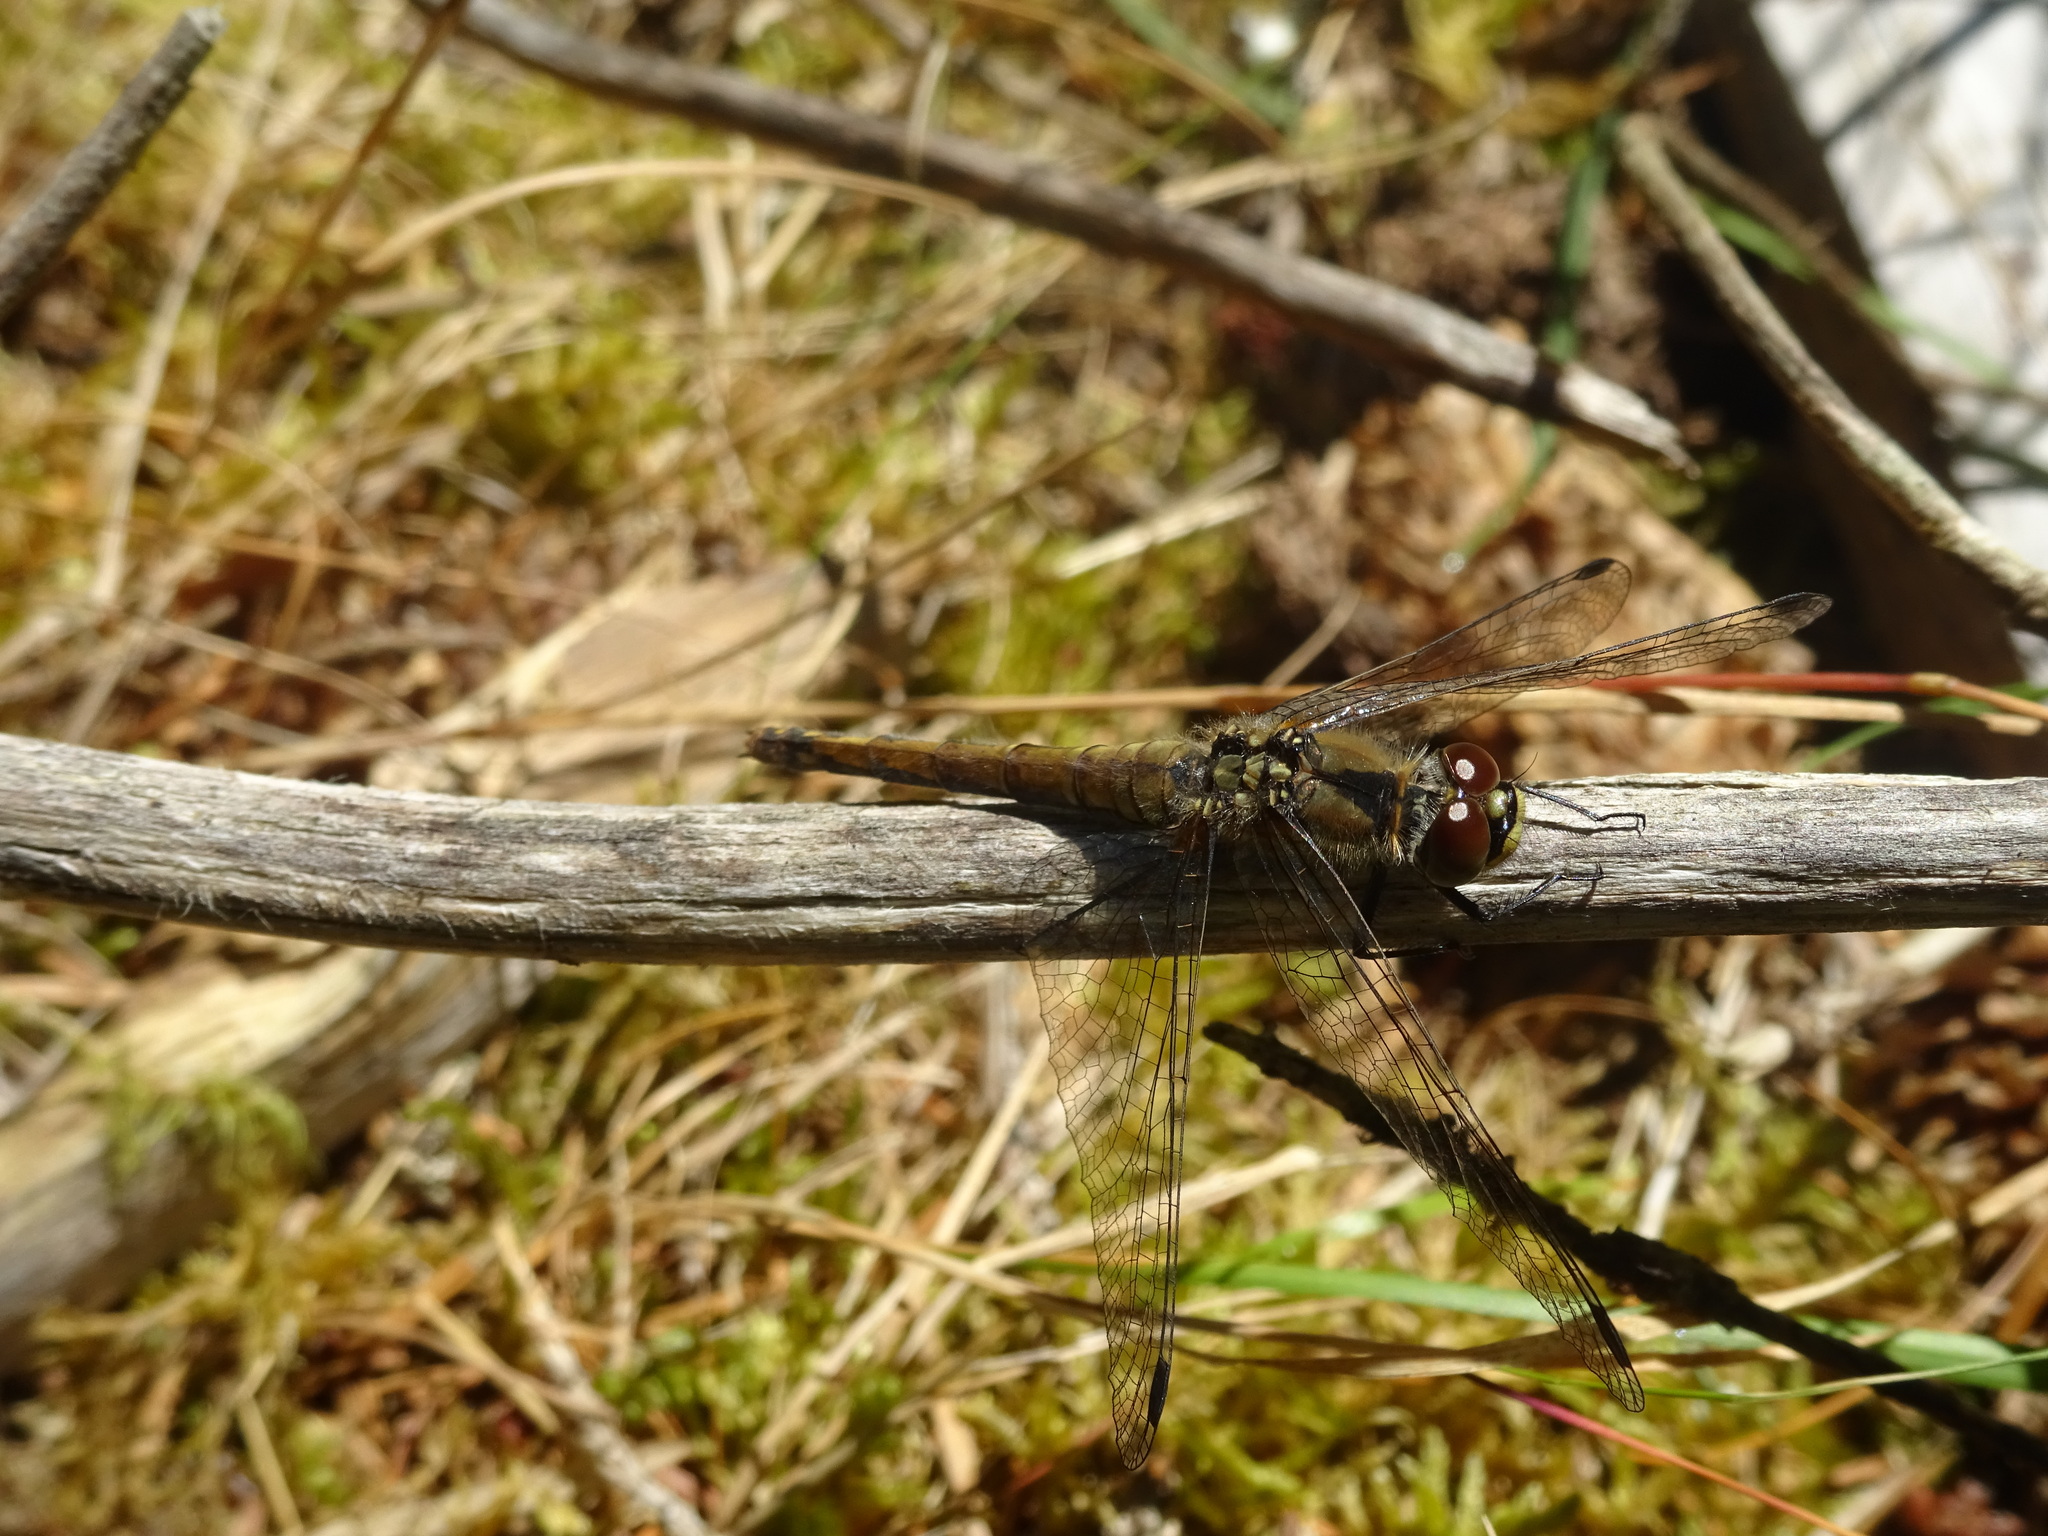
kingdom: Animalia
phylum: Arthropoda
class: Insecta
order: Odonata
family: Libellulidae
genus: Sympetrum
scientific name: Sympetrum danae
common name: Black darter
